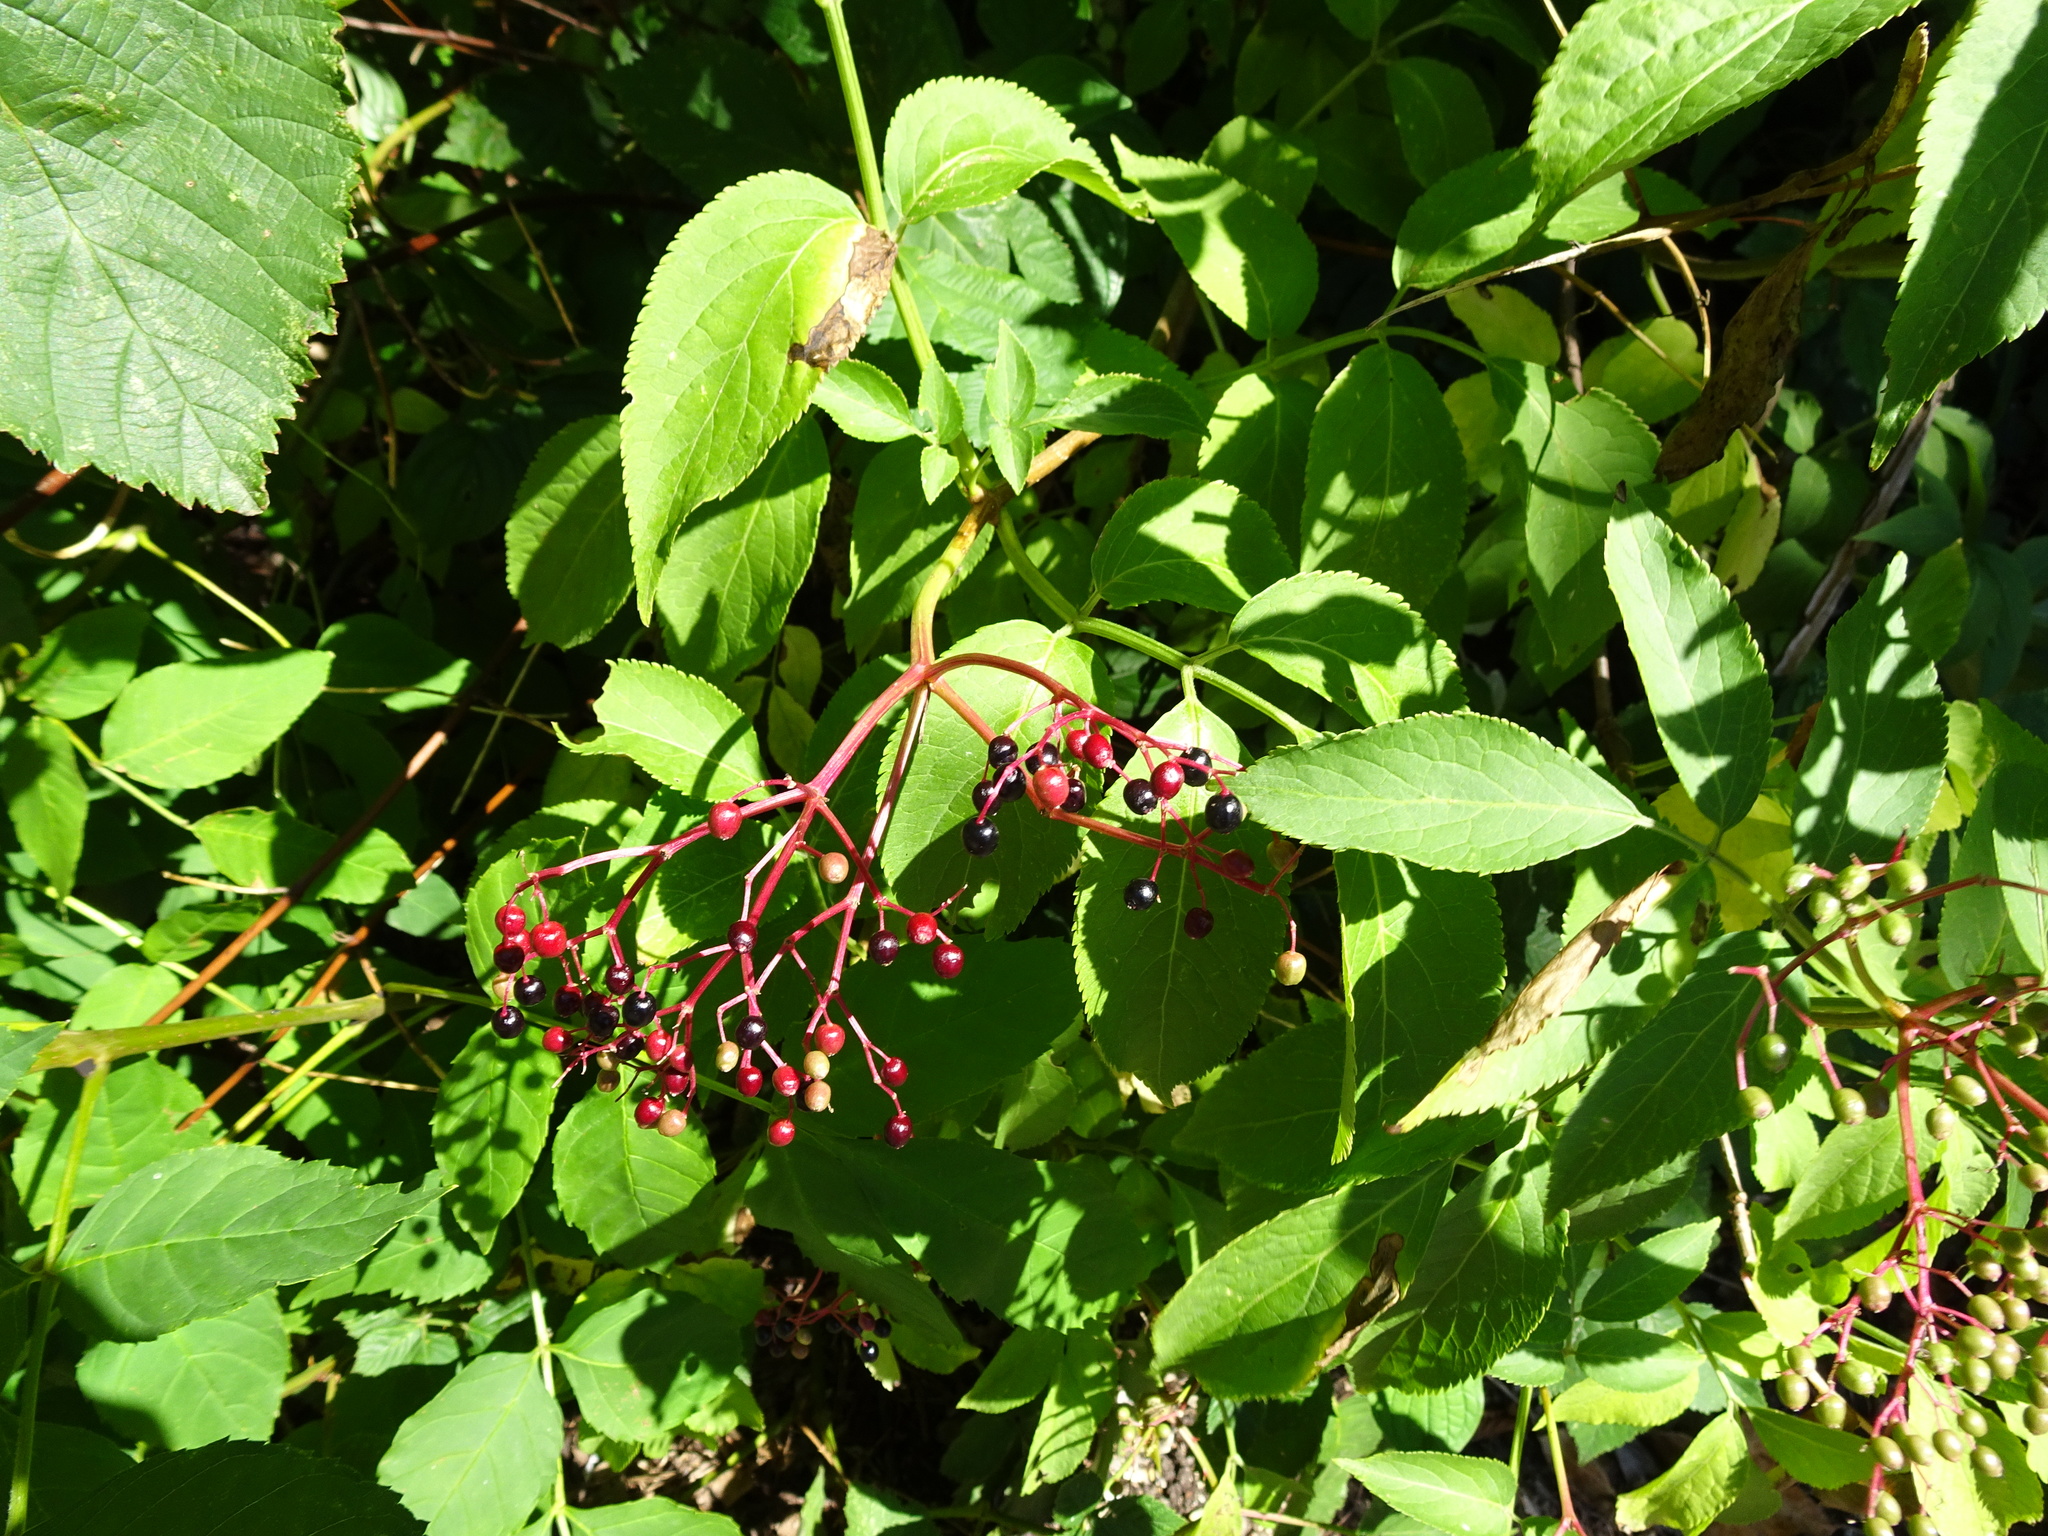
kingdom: Plantae
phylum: Tracheophyta
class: Magnoliopsida
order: Dipsacales
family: Viburnaceae
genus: Sambucus
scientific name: Sambucus nigra
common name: Elder
